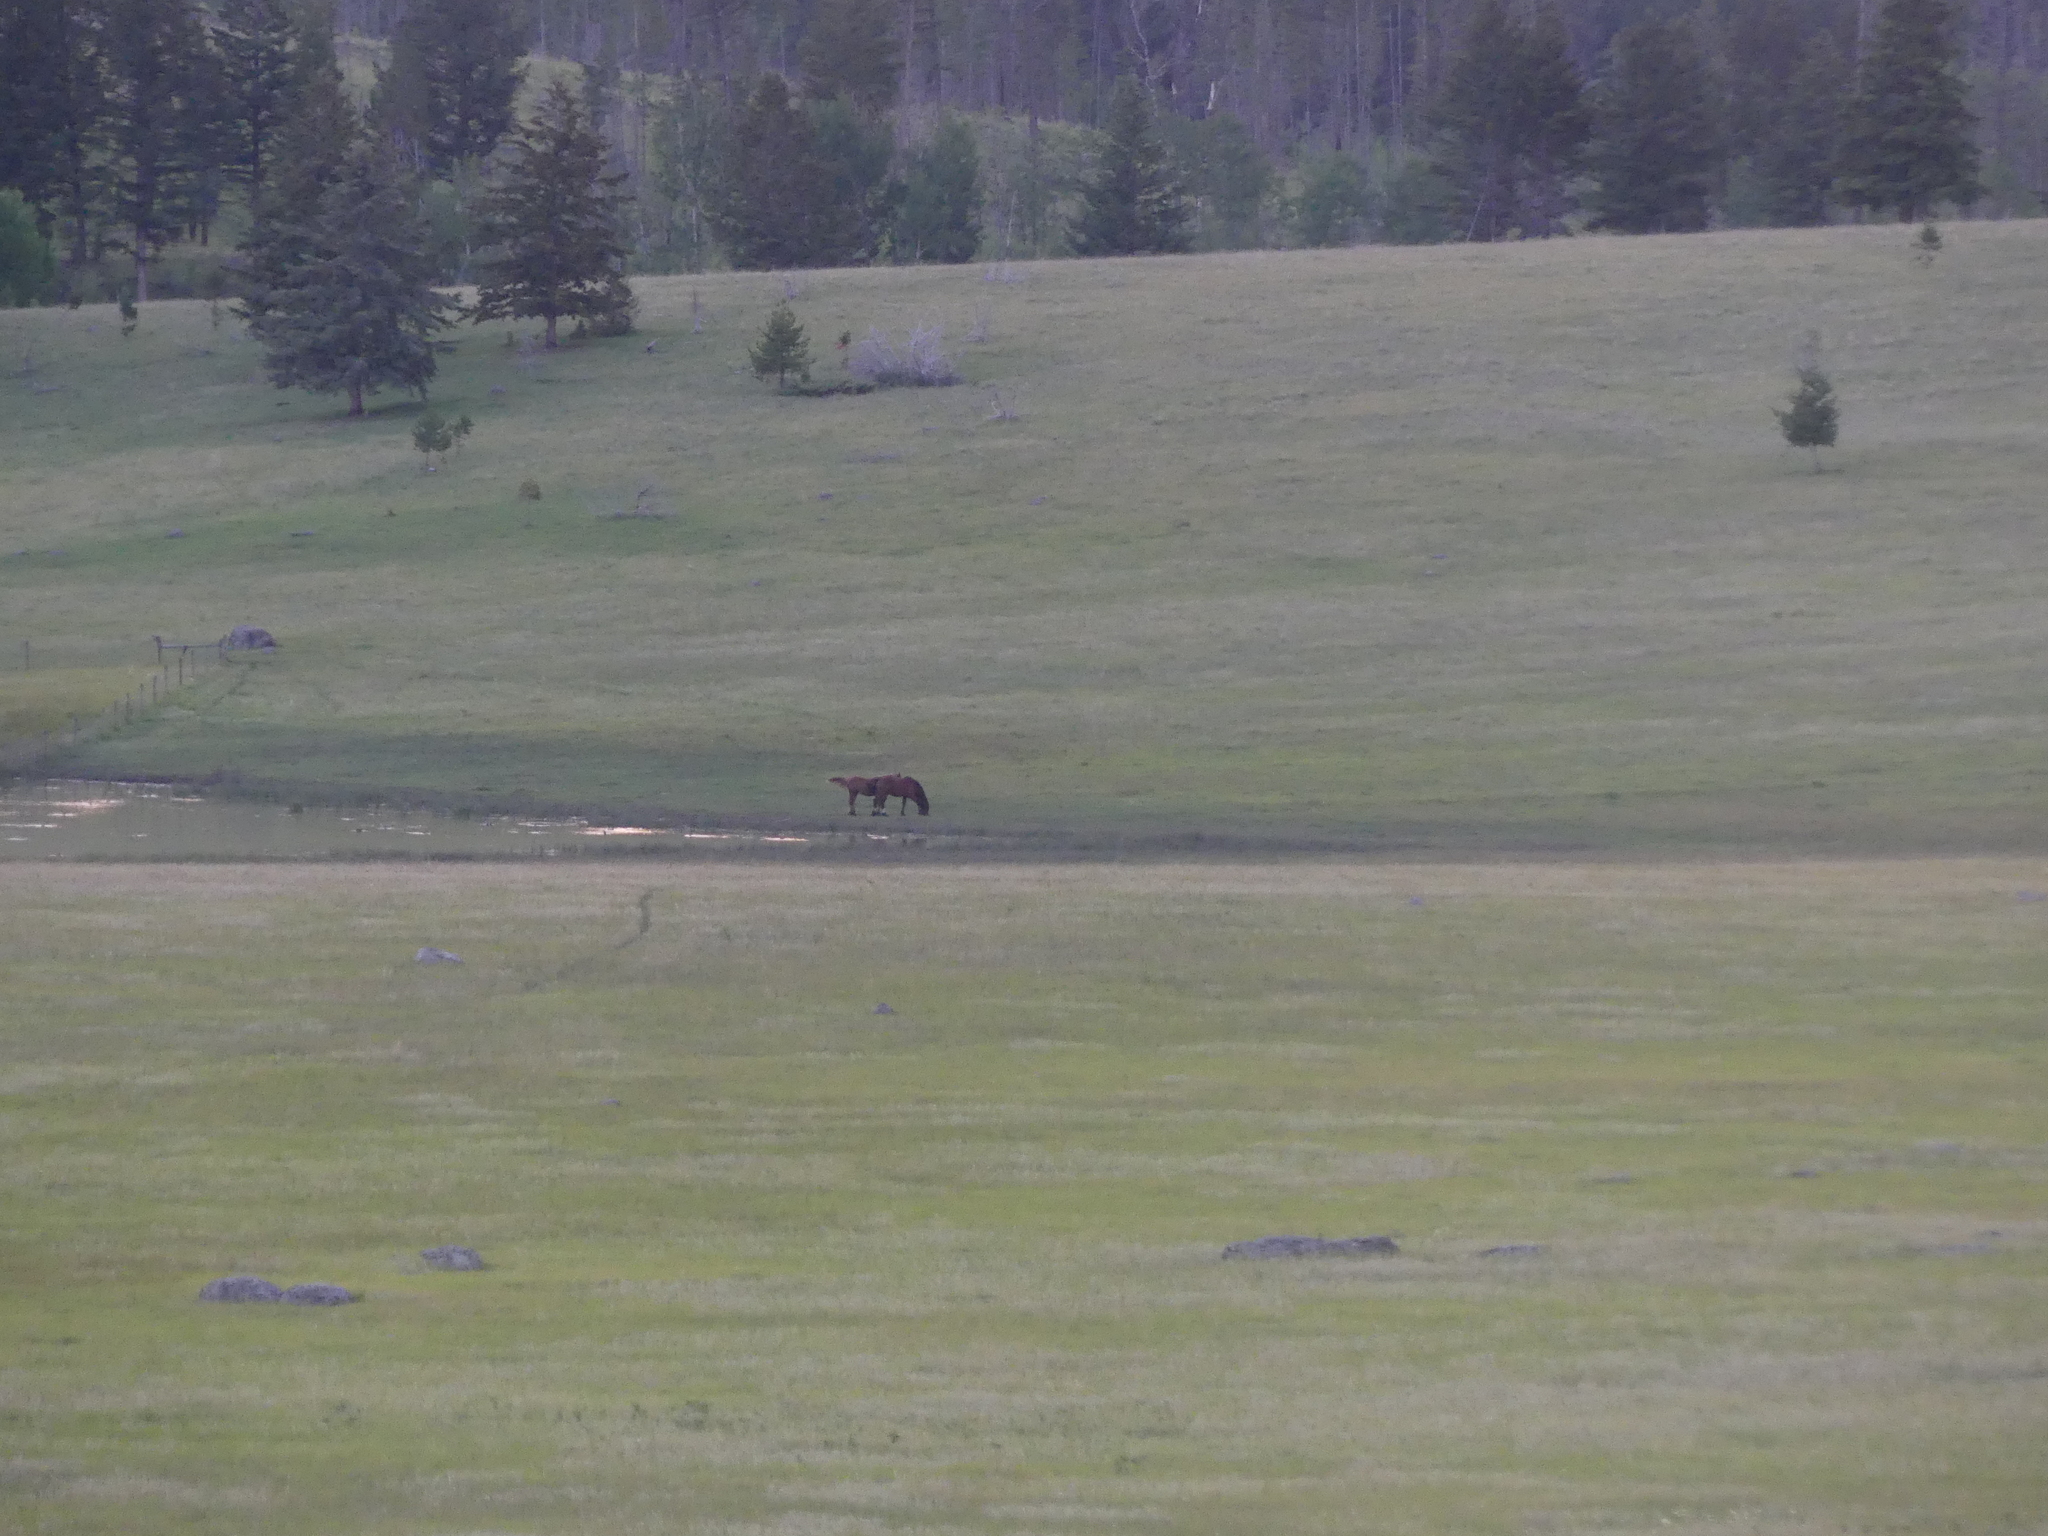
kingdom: Animalia
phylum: Chordata
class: Mammalia
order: Perissodactyla
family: Equidae
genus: Equus
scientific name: Equus caballus
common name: Horse
